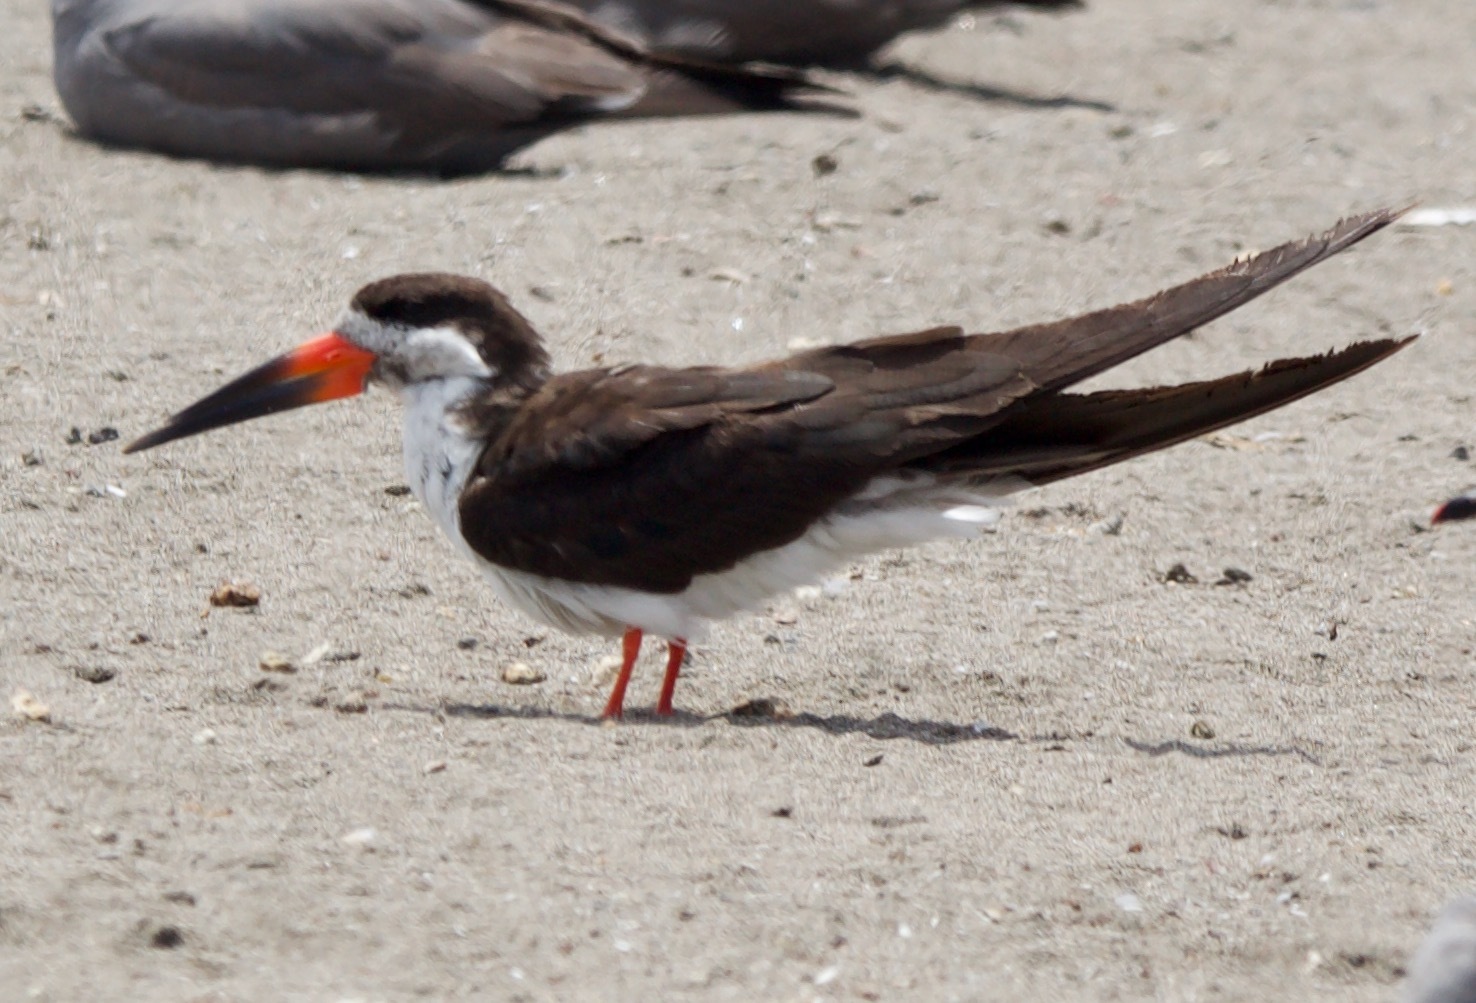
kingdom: Animalia
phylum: Chordata
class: Aves
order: Charadriiformes
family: Laridae
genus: Rynchops
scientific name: Rynchops niger
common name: Black skimmer
